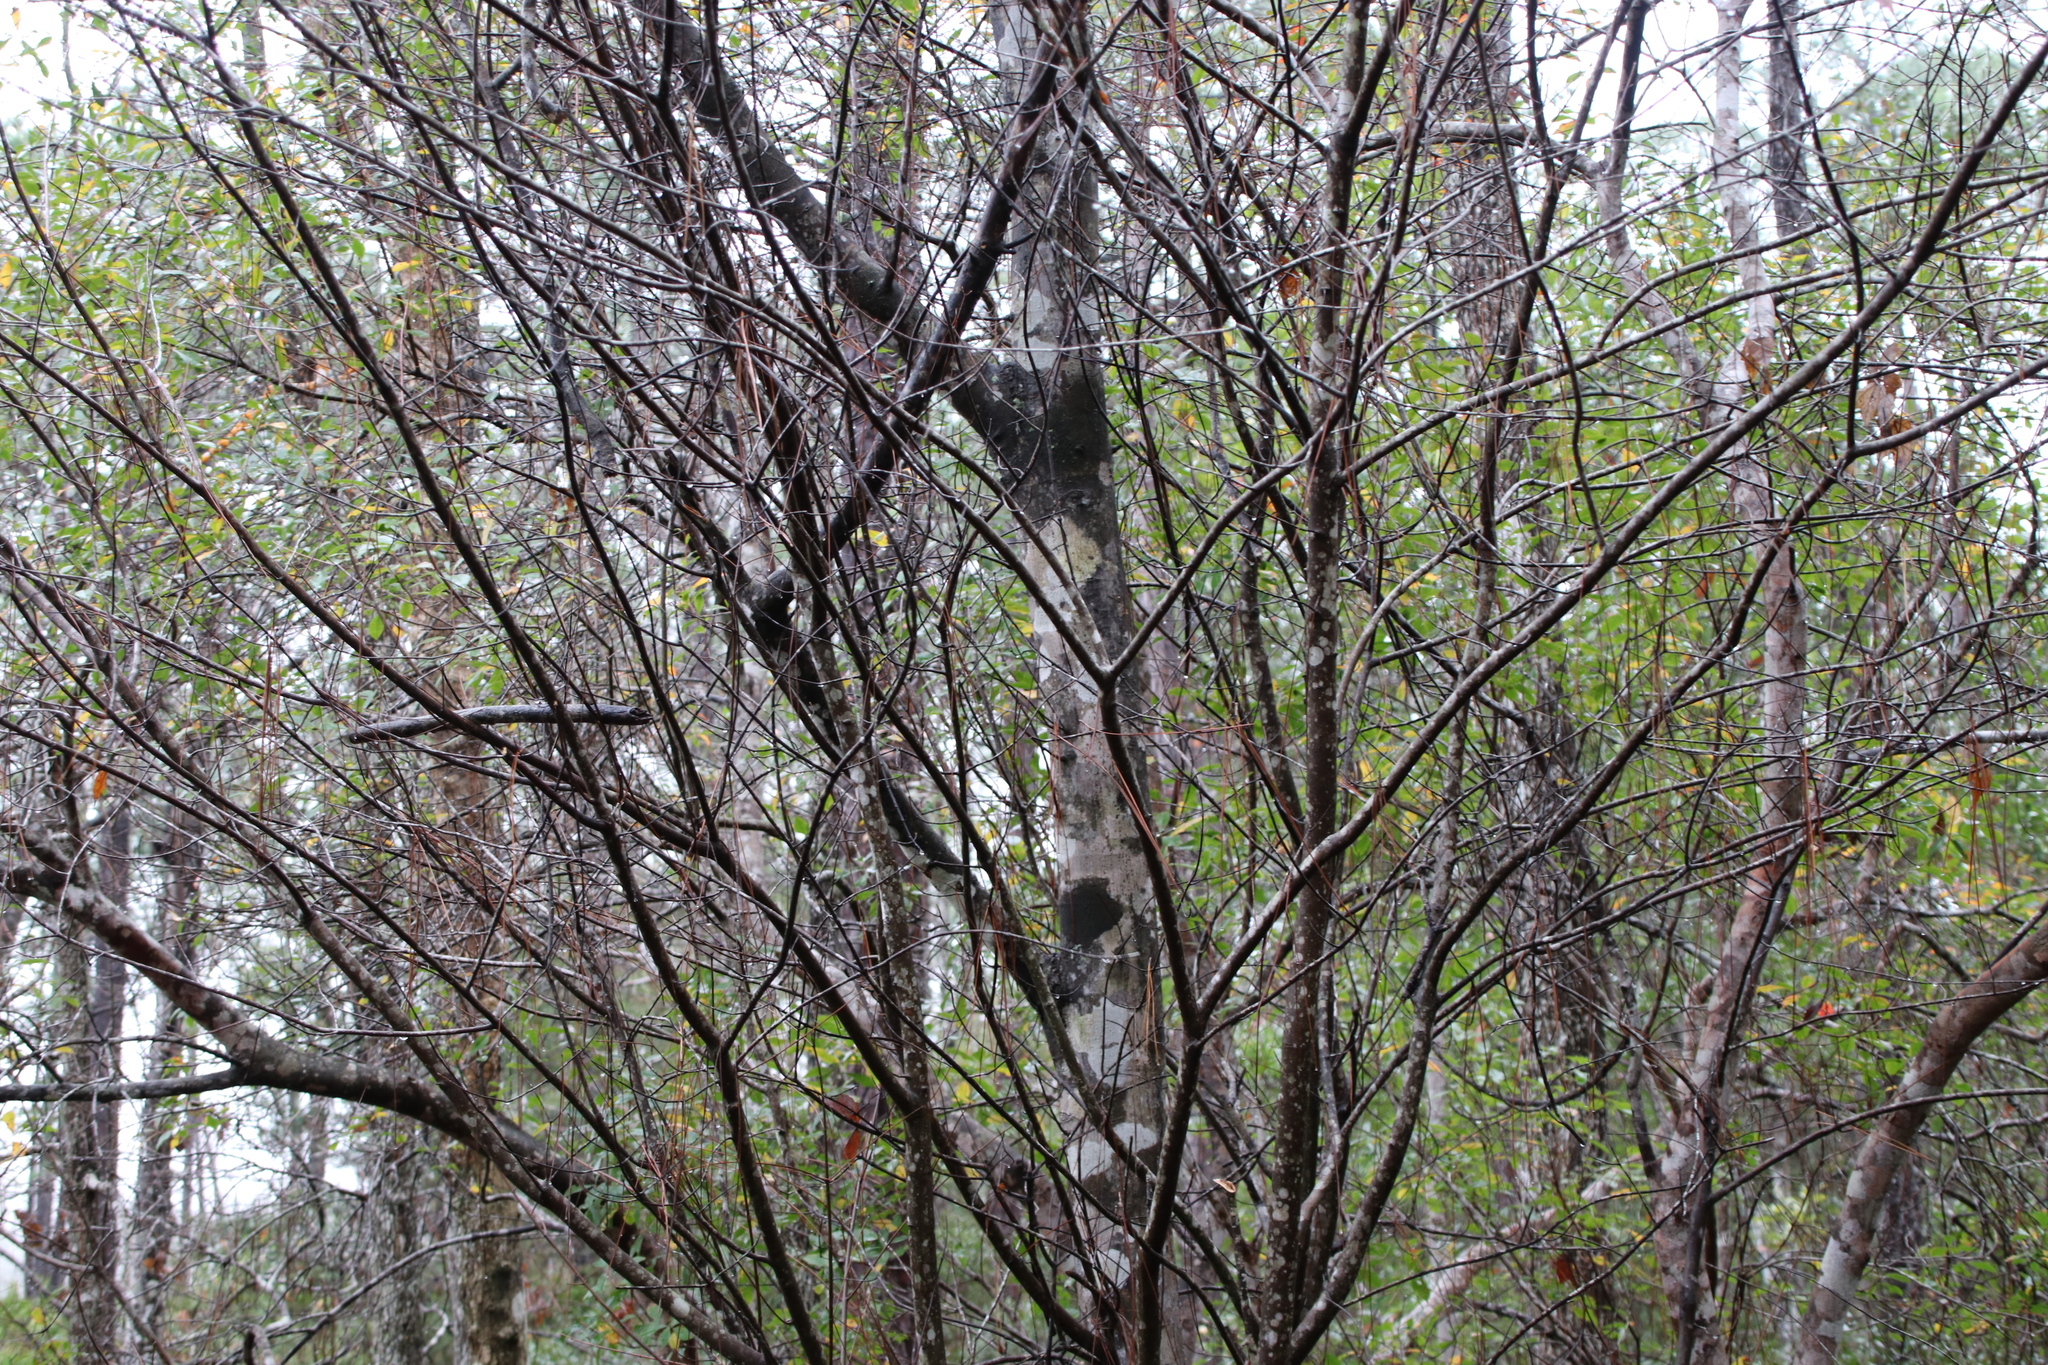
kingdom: Plantae
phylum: Tracheophyta
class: Magnoliopsida
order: Sapindales
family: Sapindaceae
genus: Acer
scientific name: Acer rubrum
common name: Red maple
